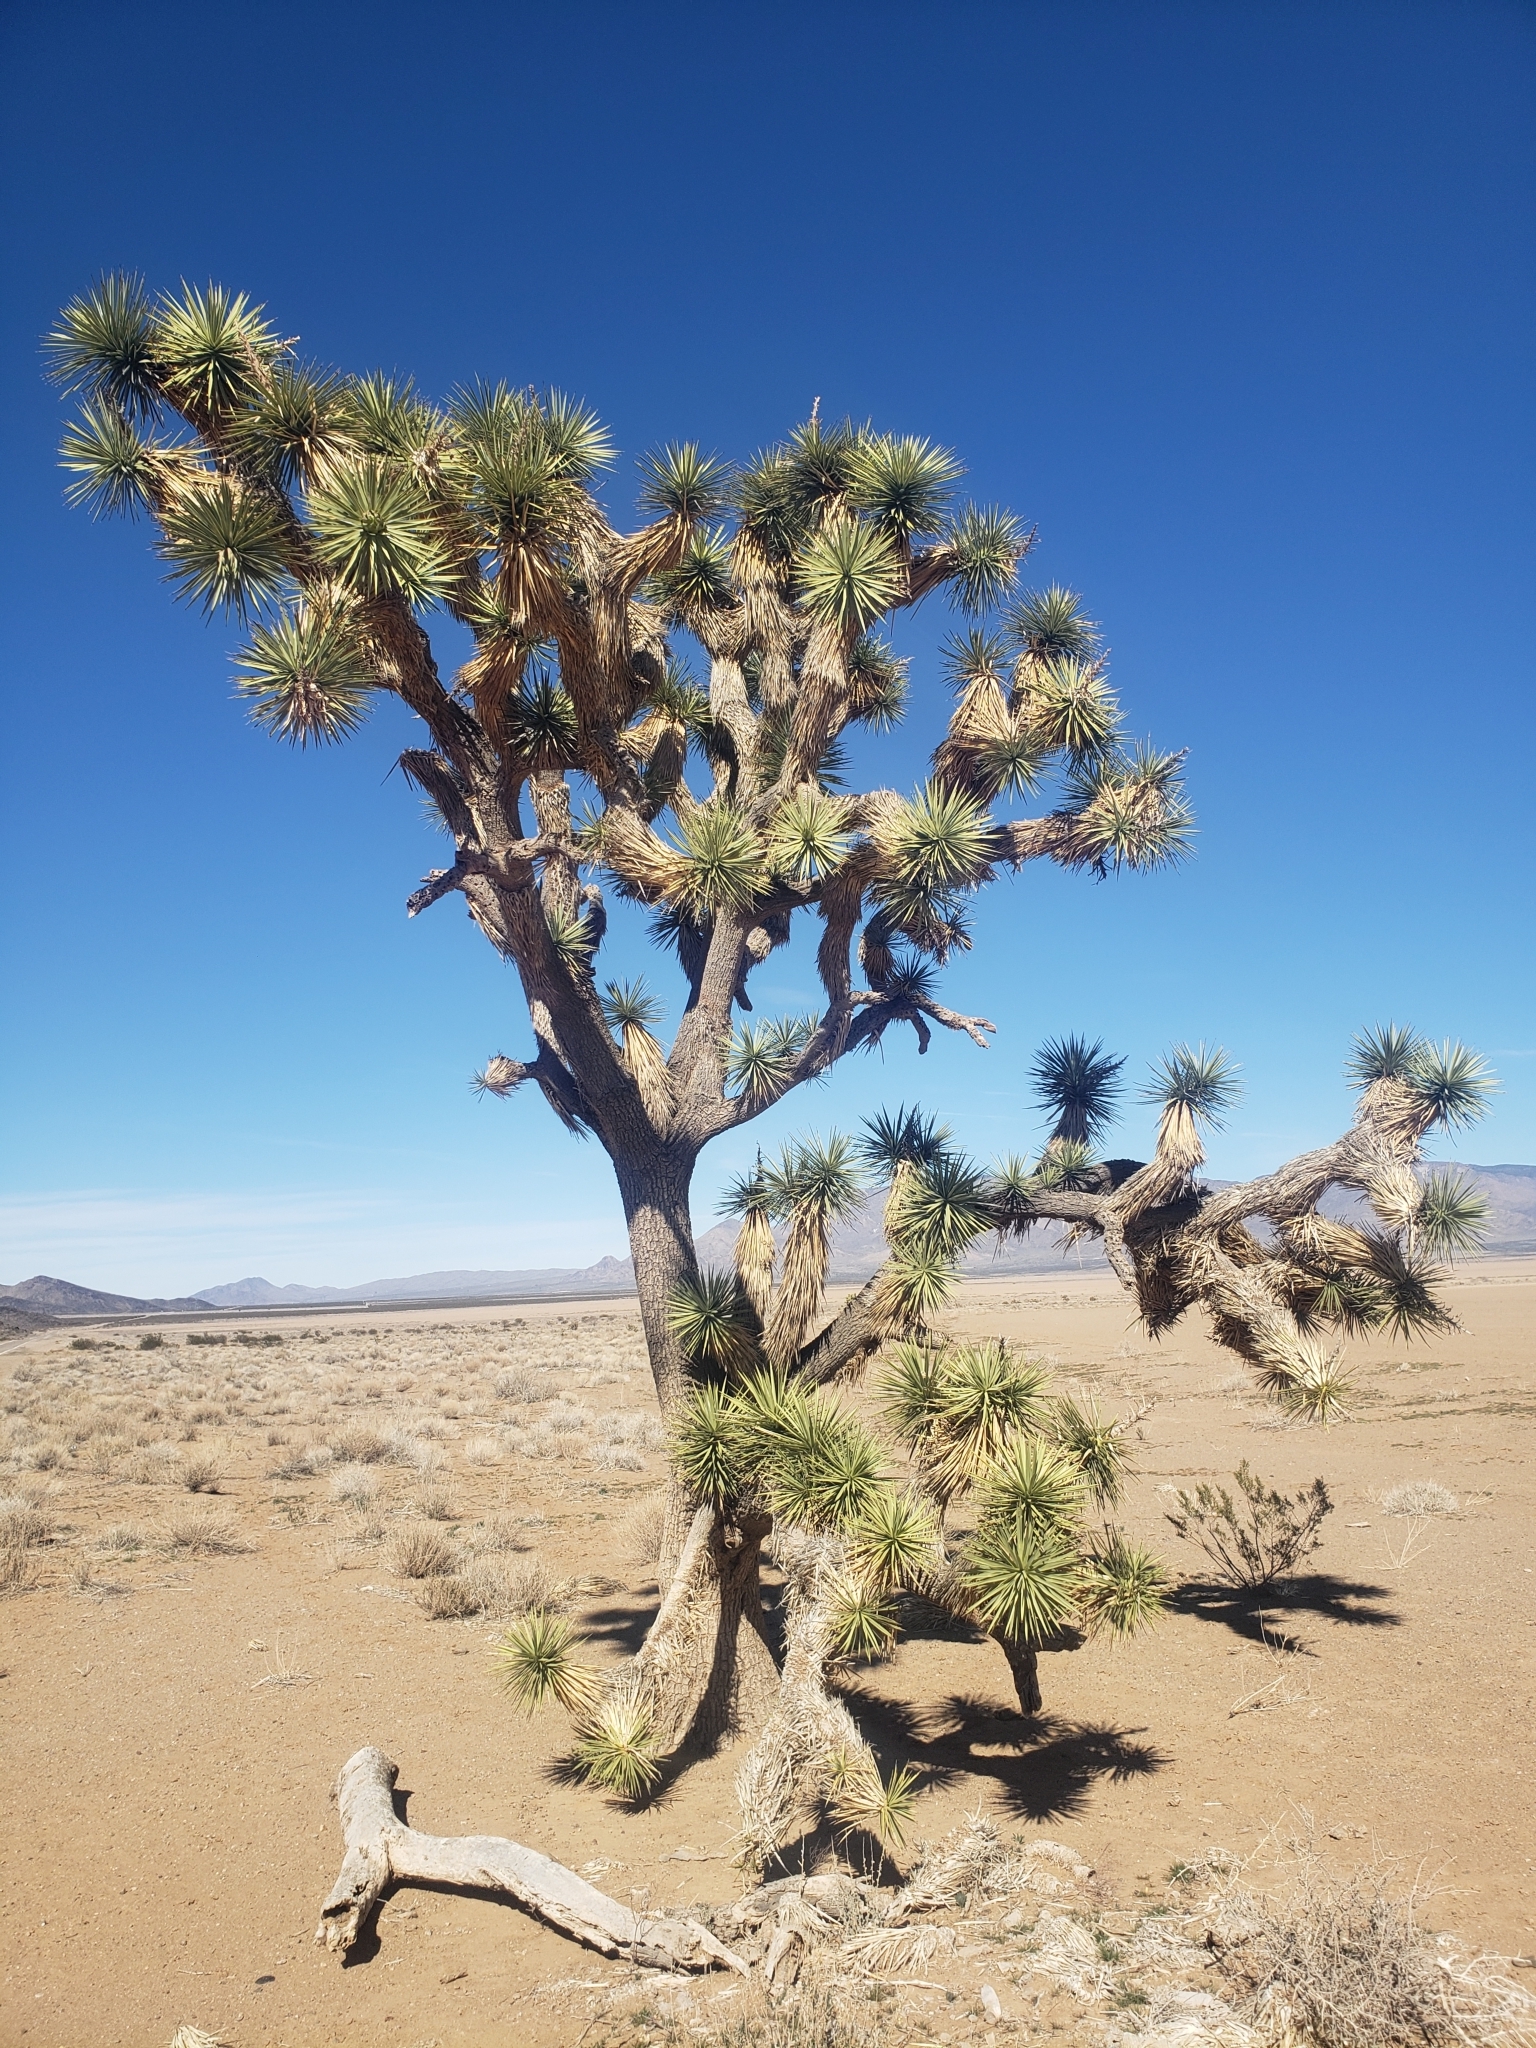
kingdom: Plantae
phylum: Tracheophyta
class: Liliopsida
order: Asparagales
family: Asparagaceae
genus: Yucca
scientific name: Yucca brevifolia
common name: Joshua tree
